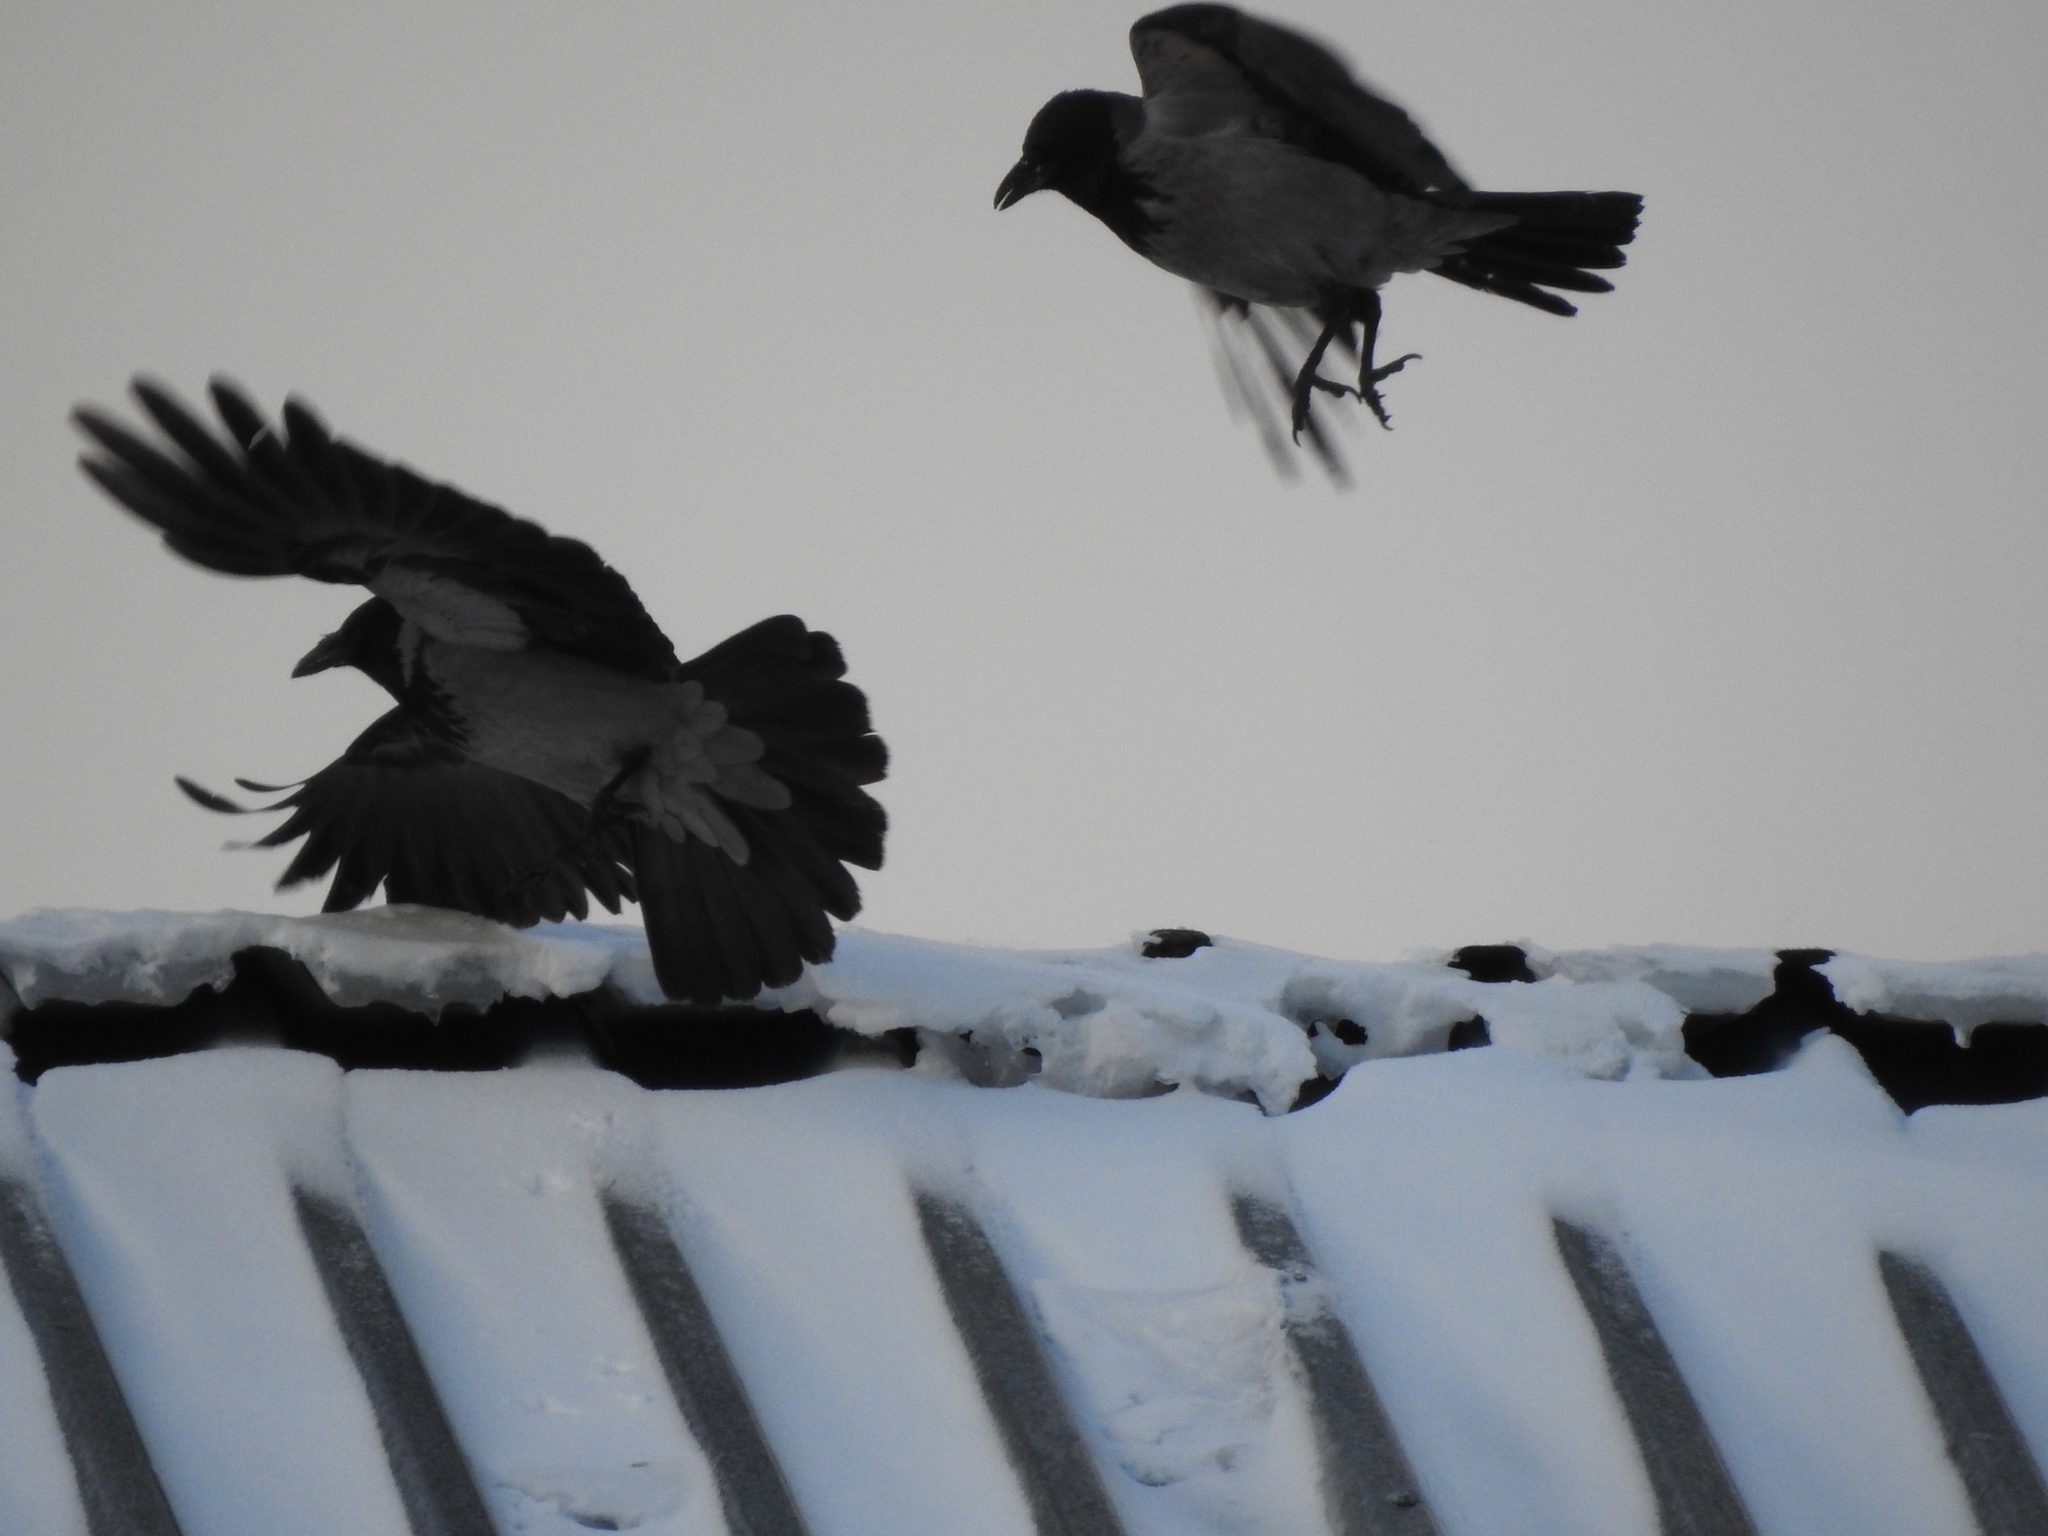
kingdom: Animalia
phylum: Chordata
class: Aves
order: Passeriformes
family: Corvidae
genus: Corvus
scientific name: Corvus cornix
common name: Hooded crow
